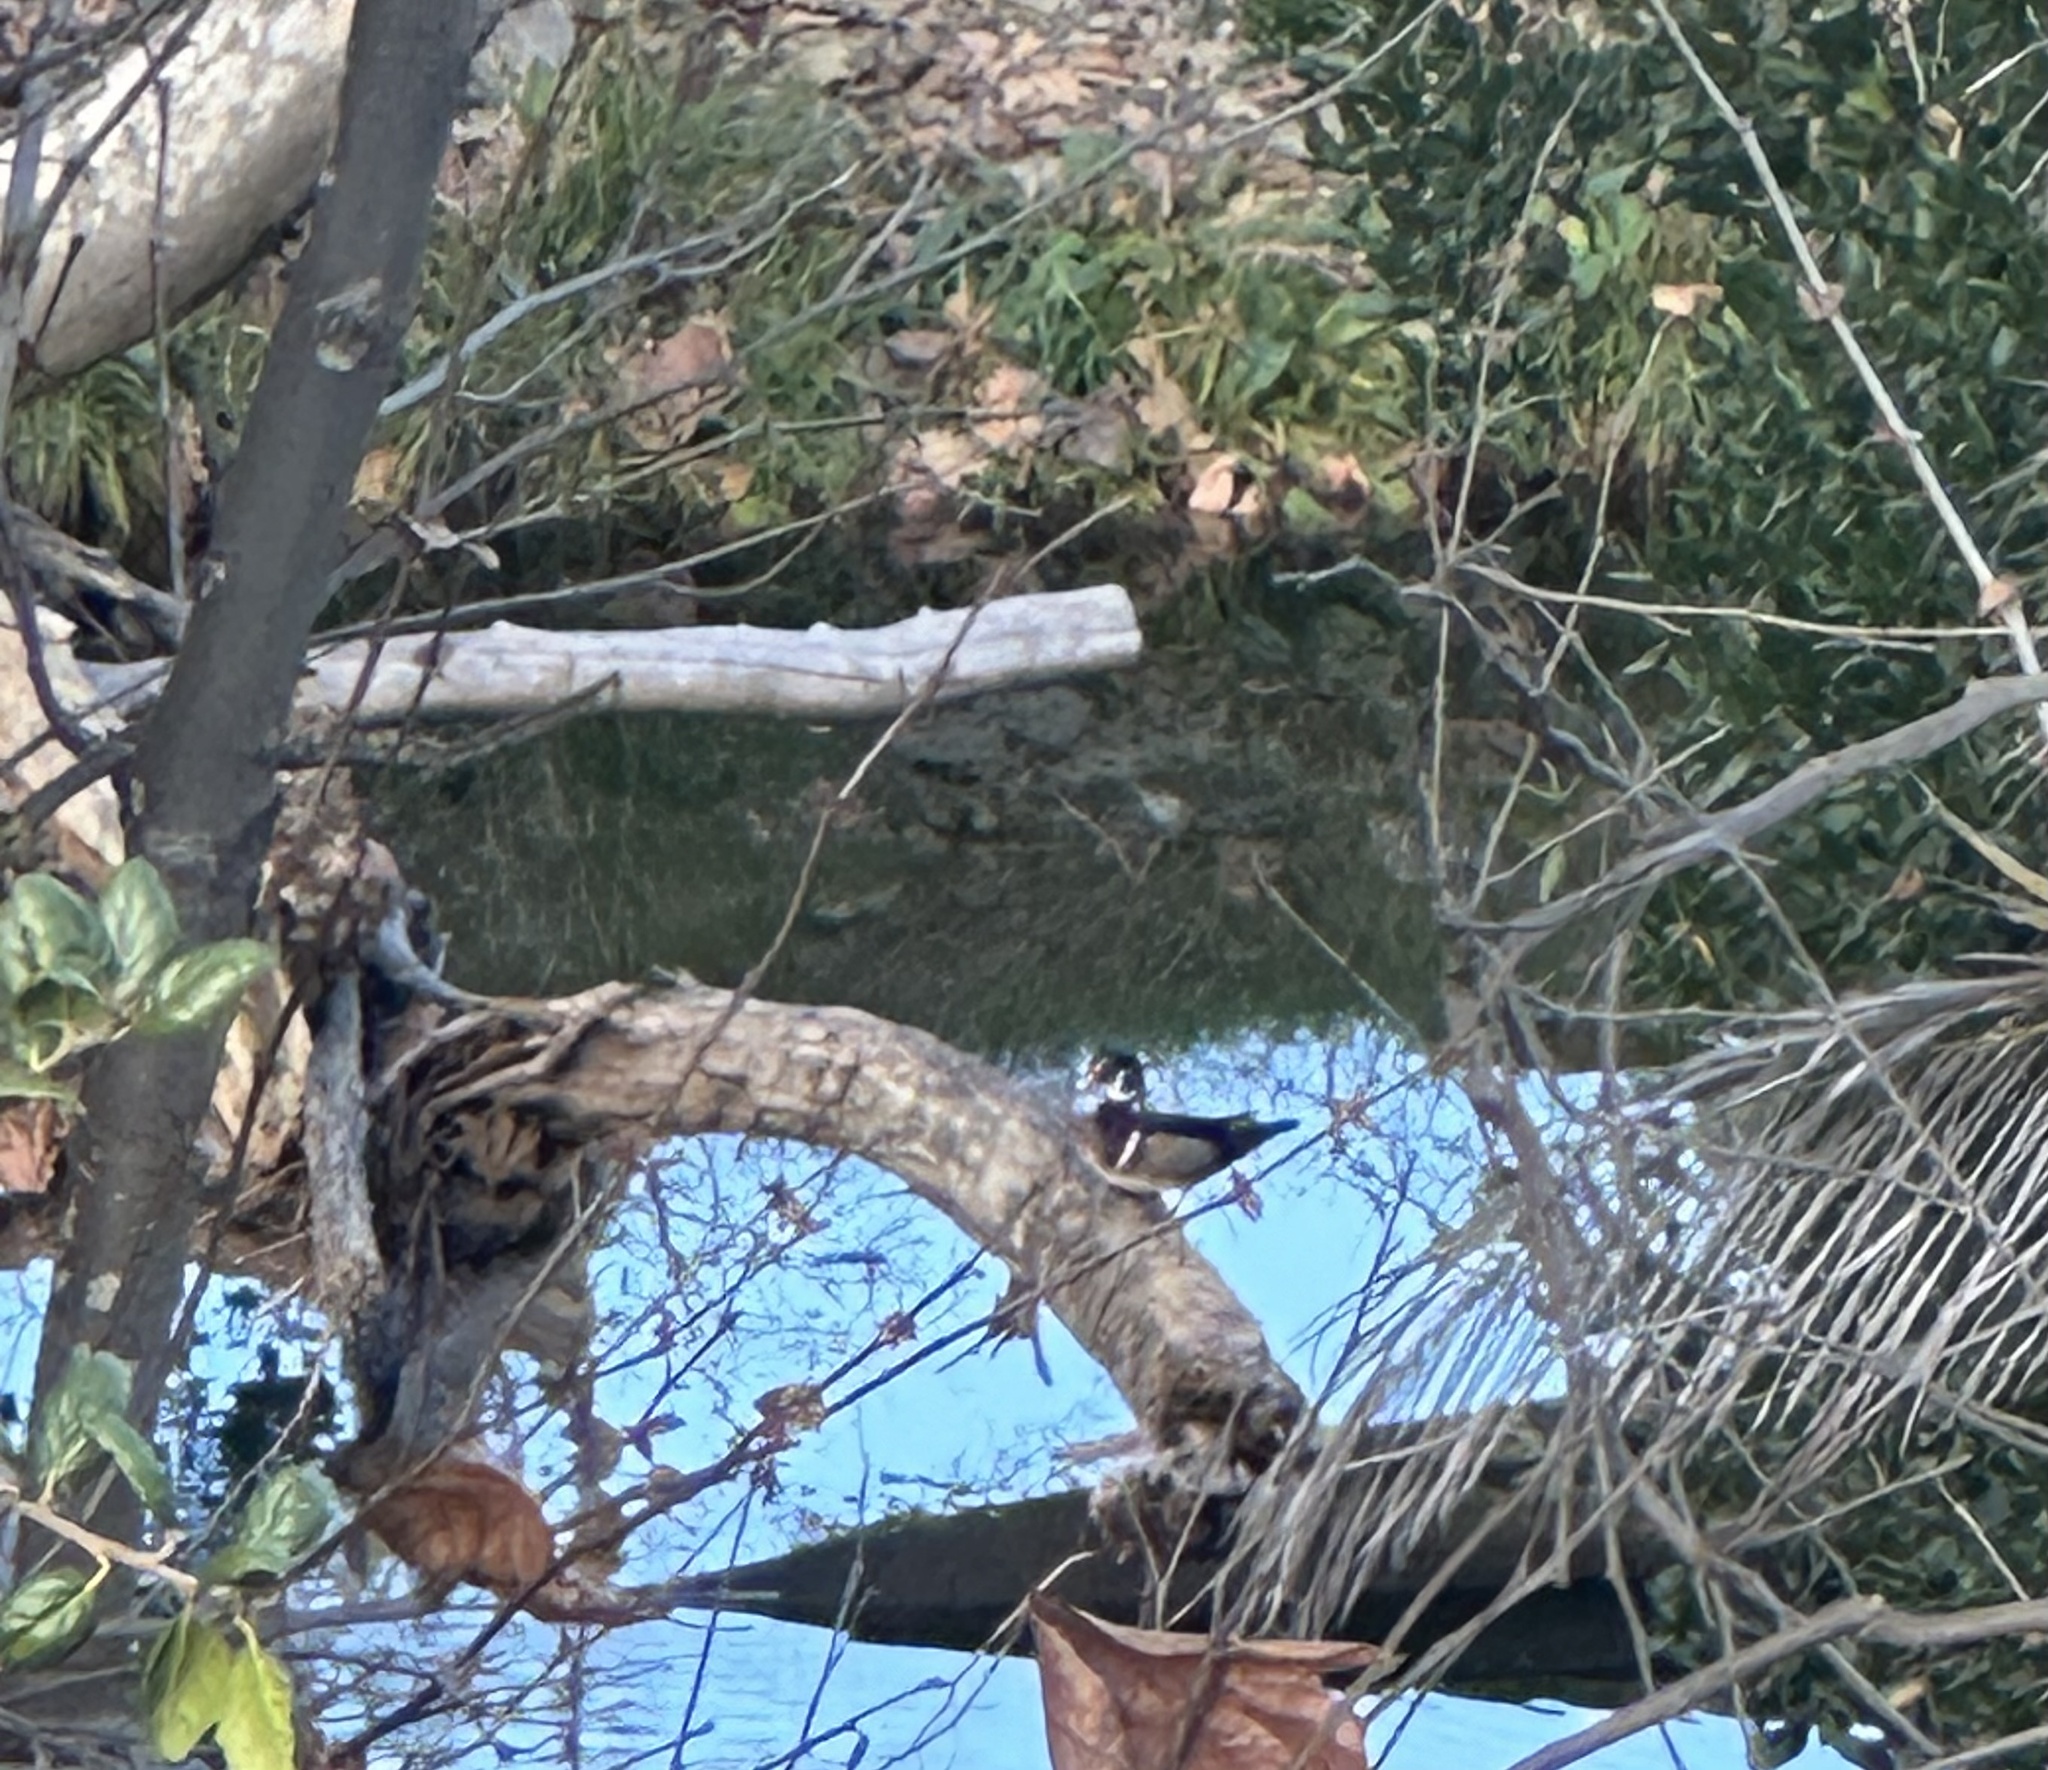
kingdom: Animalia
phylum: Chordata
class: Aves
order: Anseriformes
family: Anatidae
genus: Aix
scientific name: Aix sponsa
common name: Wood duck
